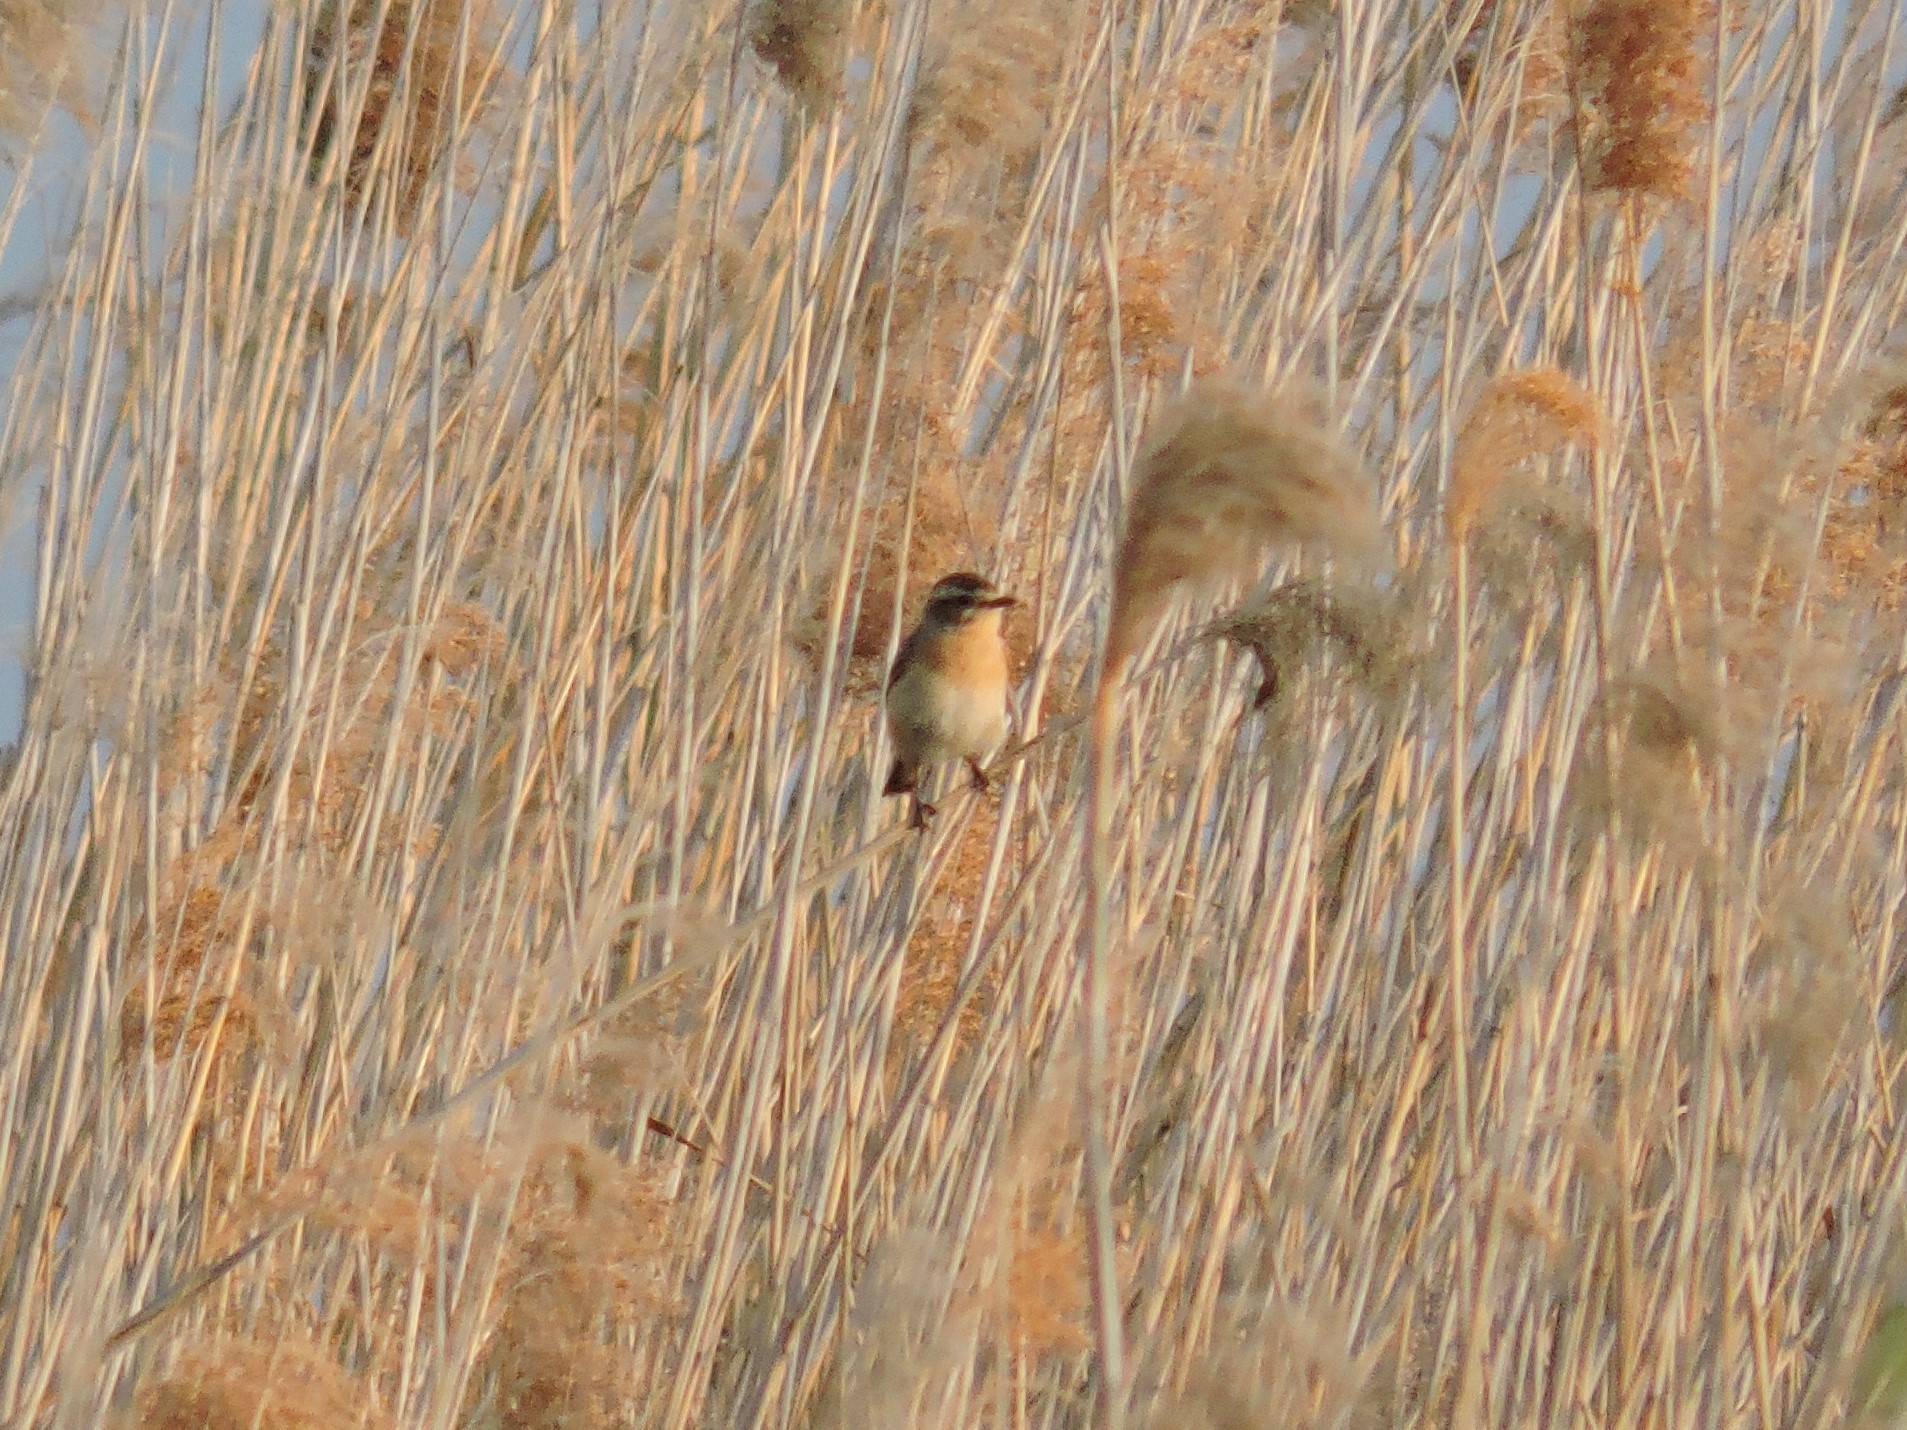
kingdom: Animalia
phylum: Chordata
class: Aves
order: Passeriformes
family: Muscicapidae
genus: Saxicola
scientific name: Saxicola rubetra
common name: Whinchat
